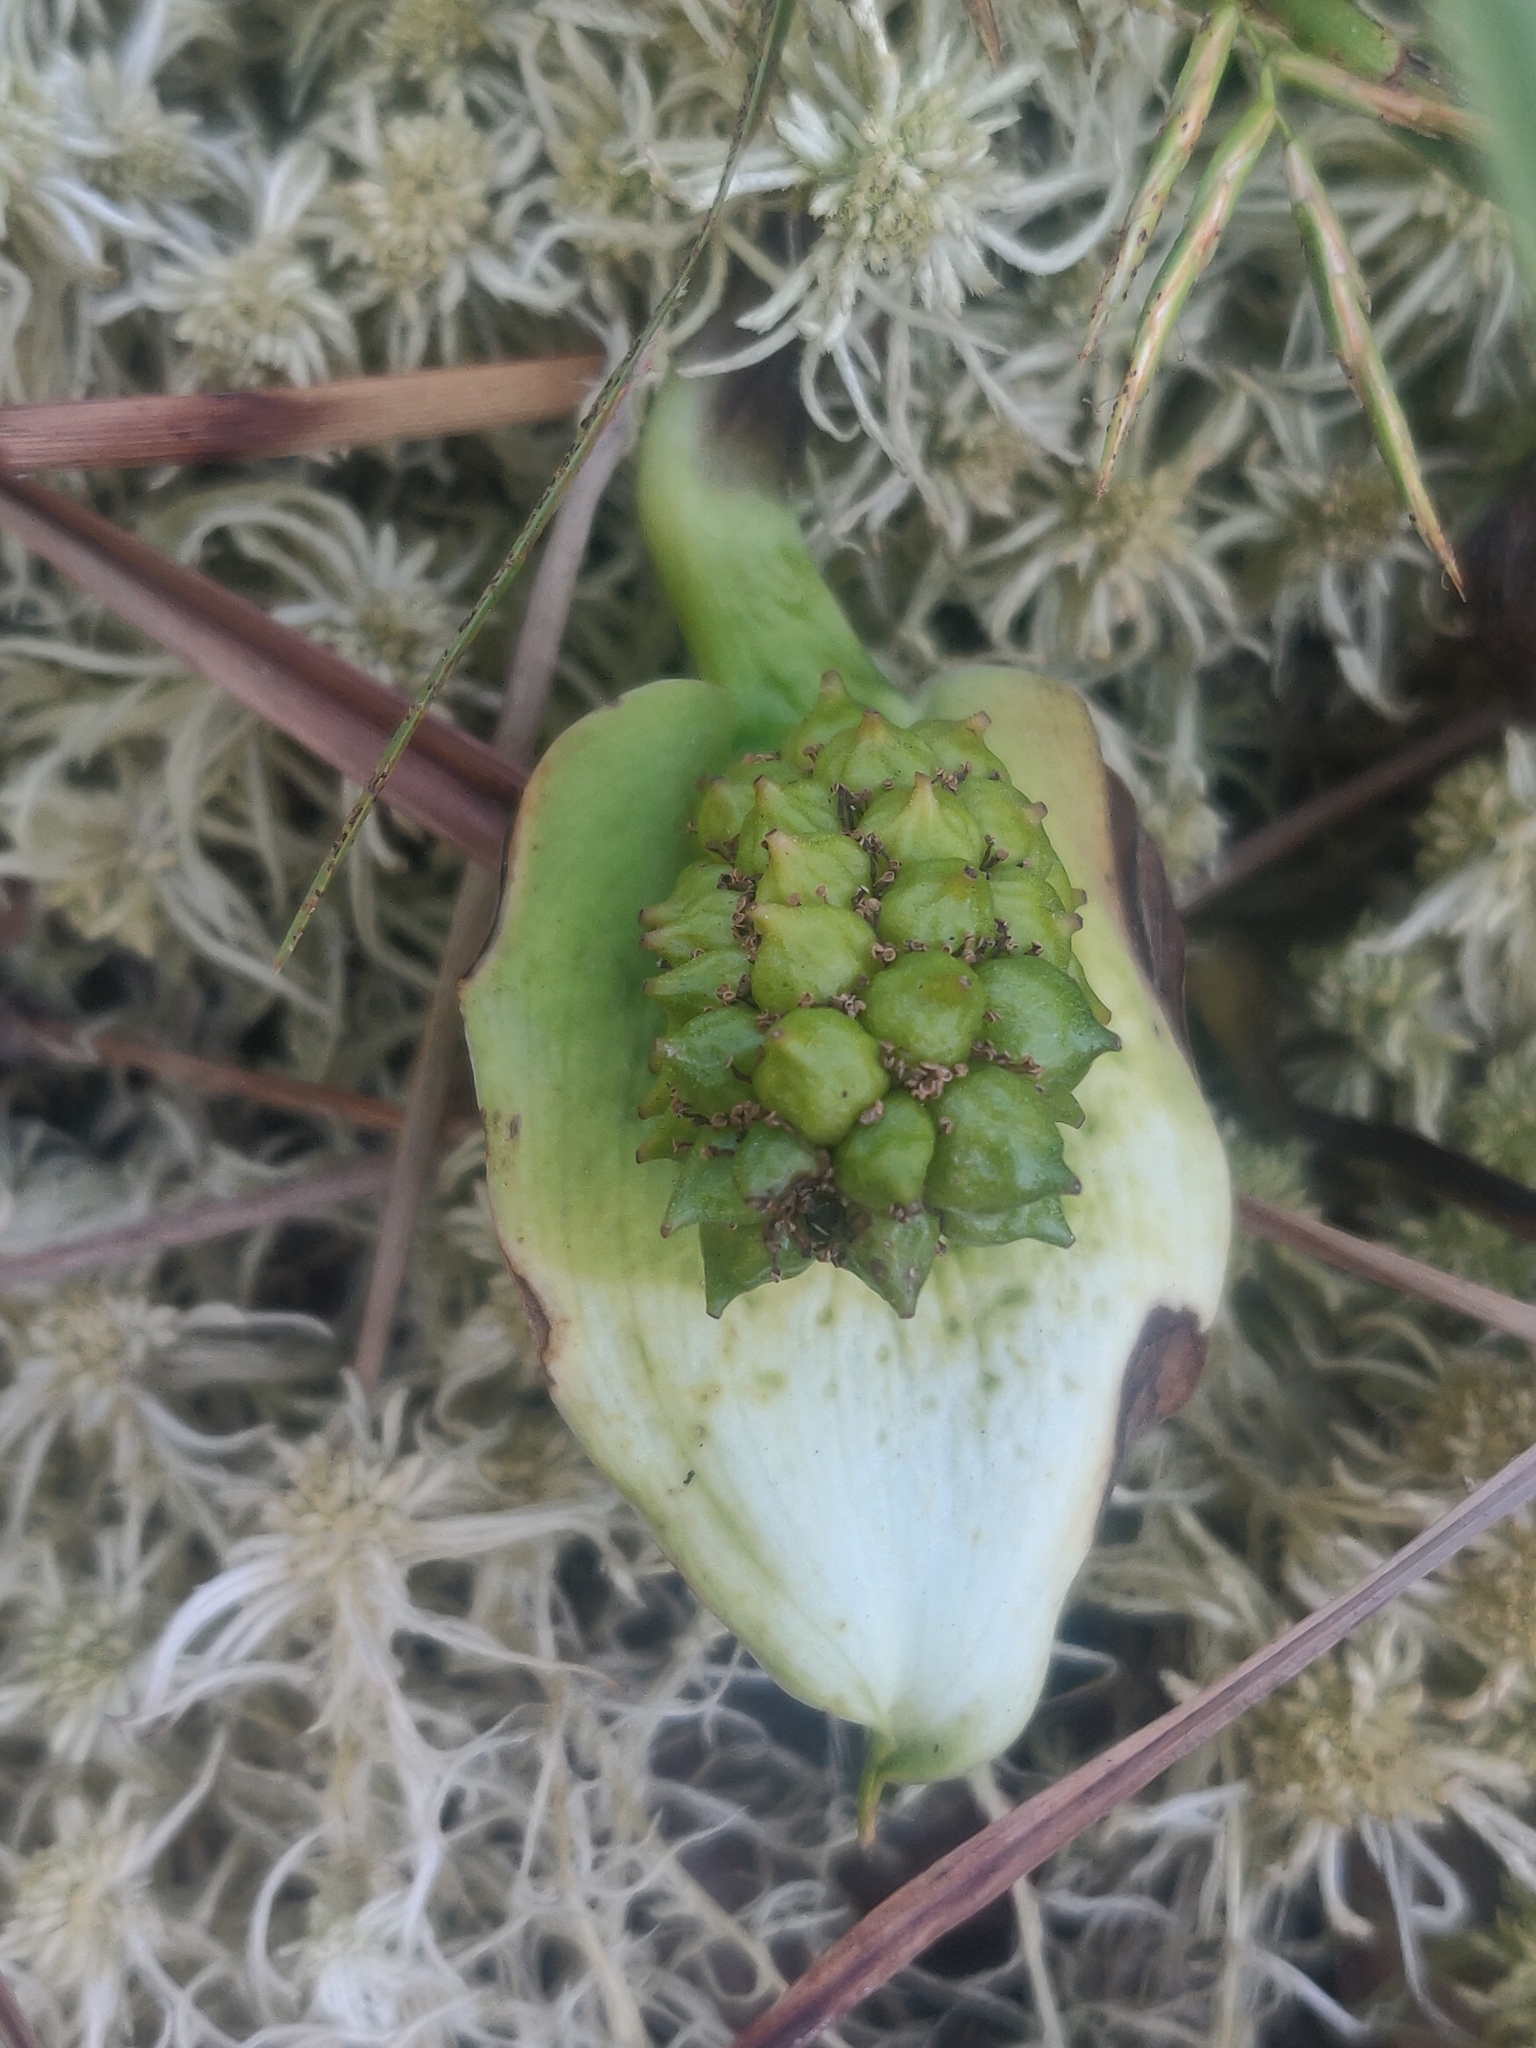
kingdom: Plantae
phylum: Tracheophyta
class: Liliopsida
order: Alismatales
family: Araceae
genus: Calla
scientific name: Calla palustris
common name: Bog arum
